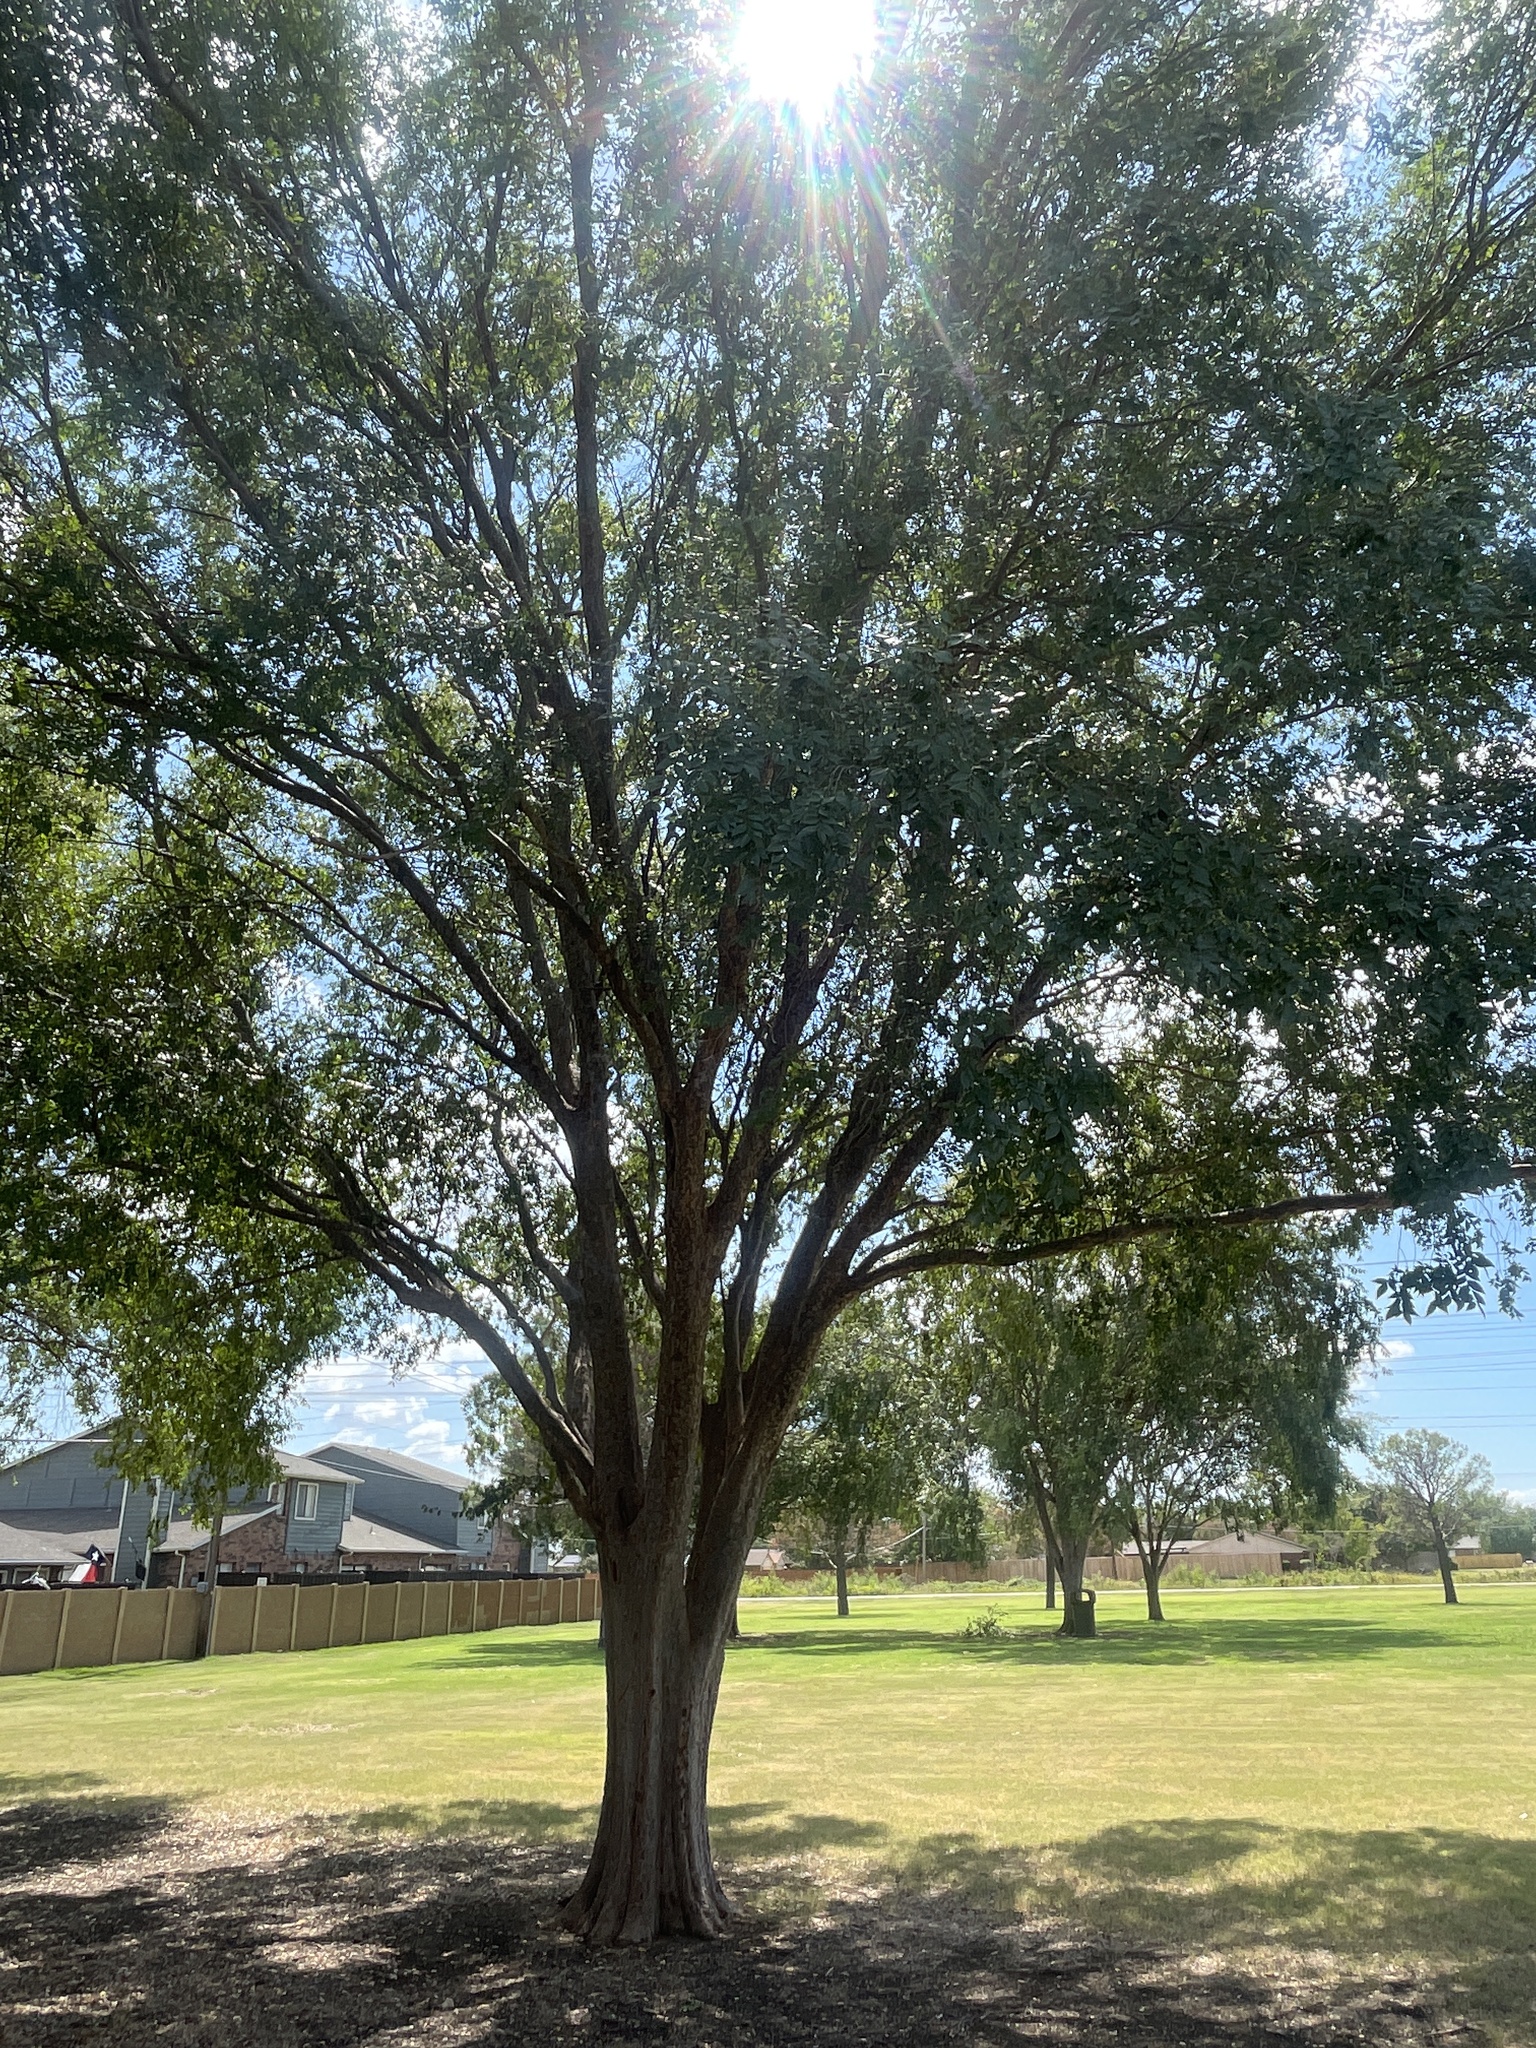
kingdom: Plantae
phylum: Tracheophyta
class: Magnoliopsida
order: Rosales
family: Ulmaceae
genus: Ulmus
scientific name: Ulmus parvifolia
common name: Chinese elm
